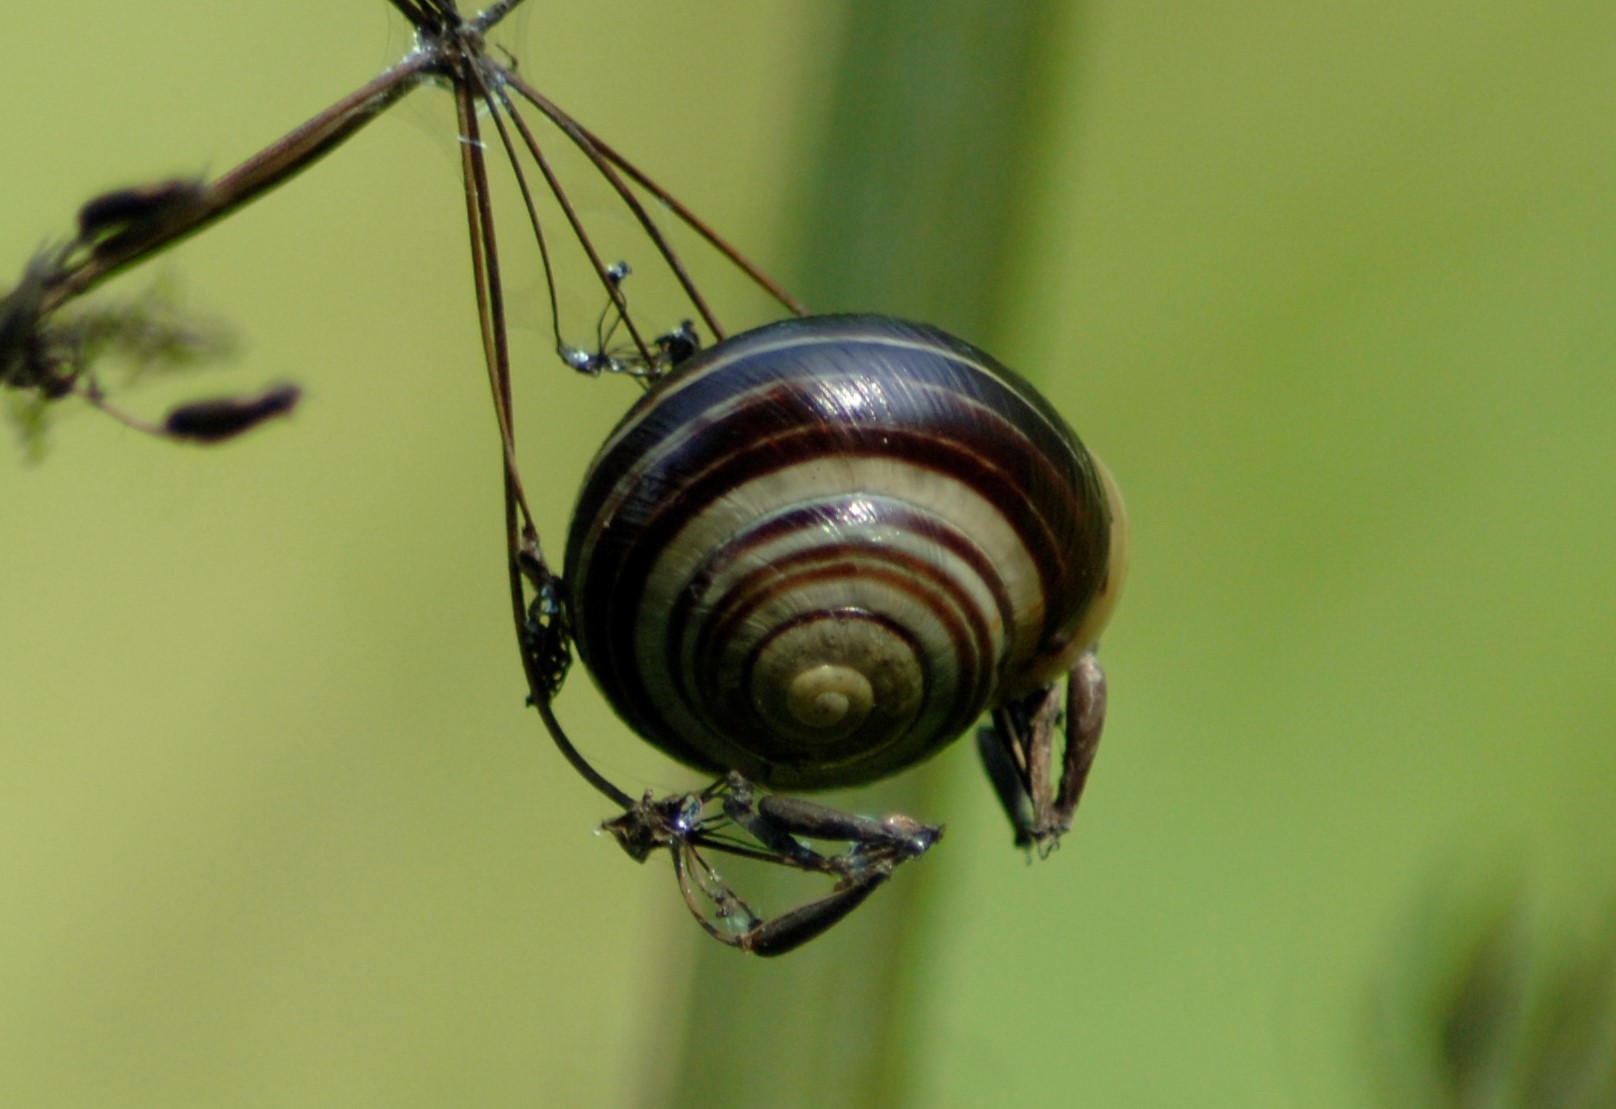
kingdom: Animalia
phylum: Mollusca
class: Gastropoda
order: Stylommatophora
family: Helicidae
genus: Cepaea
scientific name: Cepaea hortensis
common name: White-lip gardensnail
